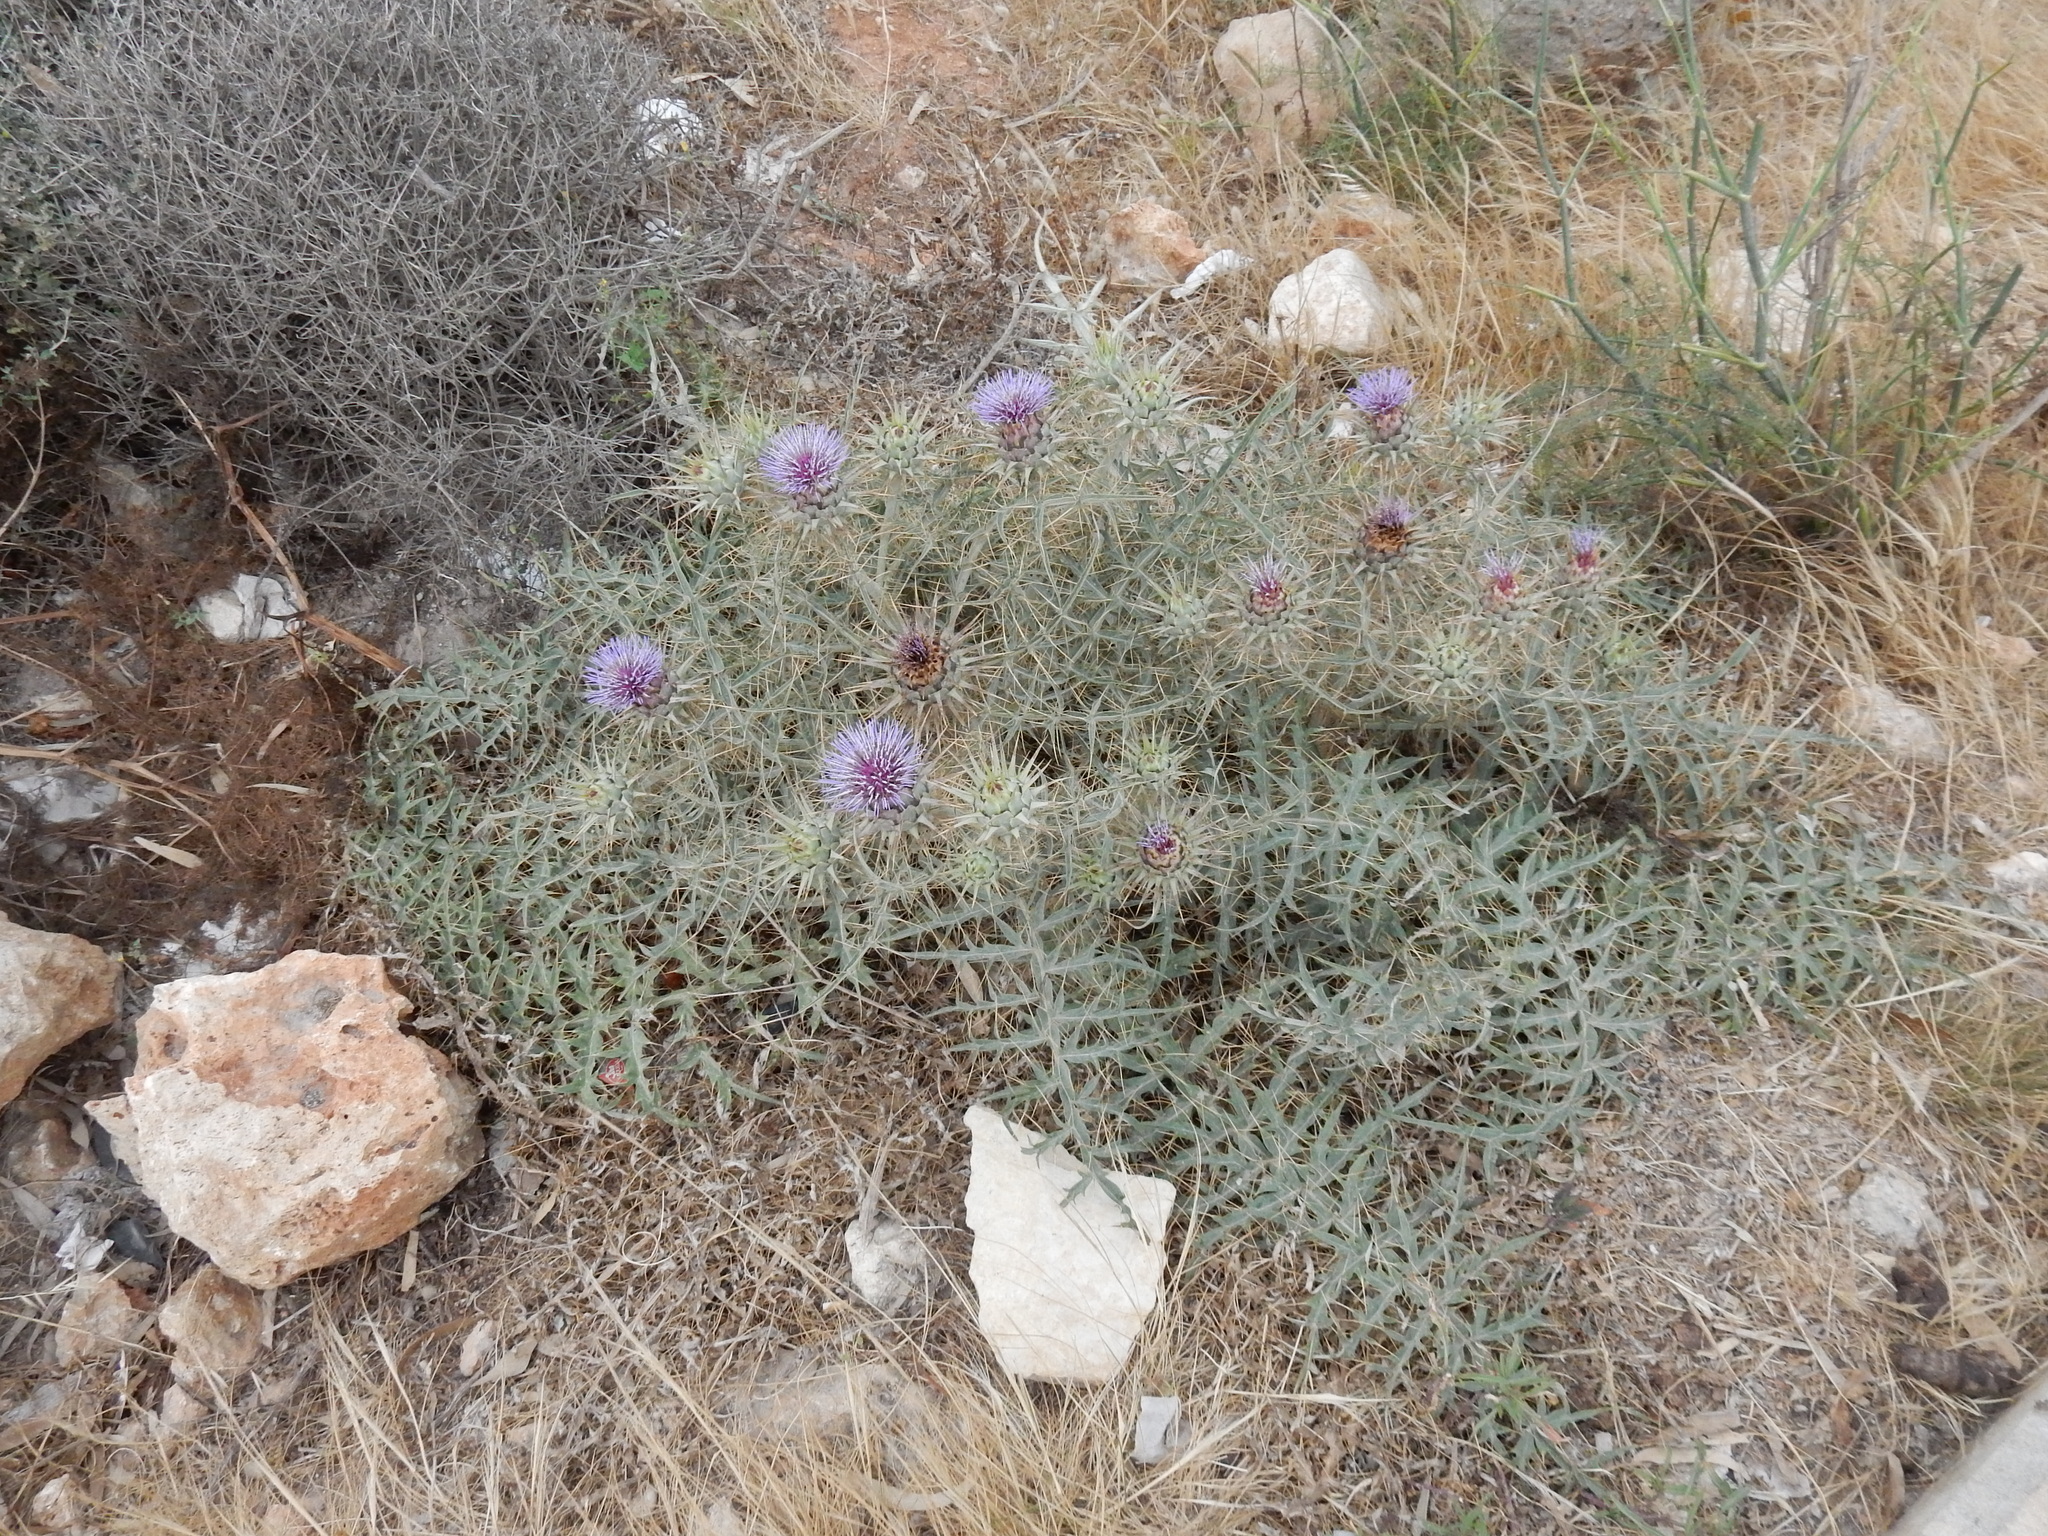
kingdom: Plantae
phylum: Tracheophyta
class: Magnoliopsida
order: Asterales
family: Asteraceae
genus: Cynara
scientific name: Cynara cardunculus
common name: Globe artichoke
